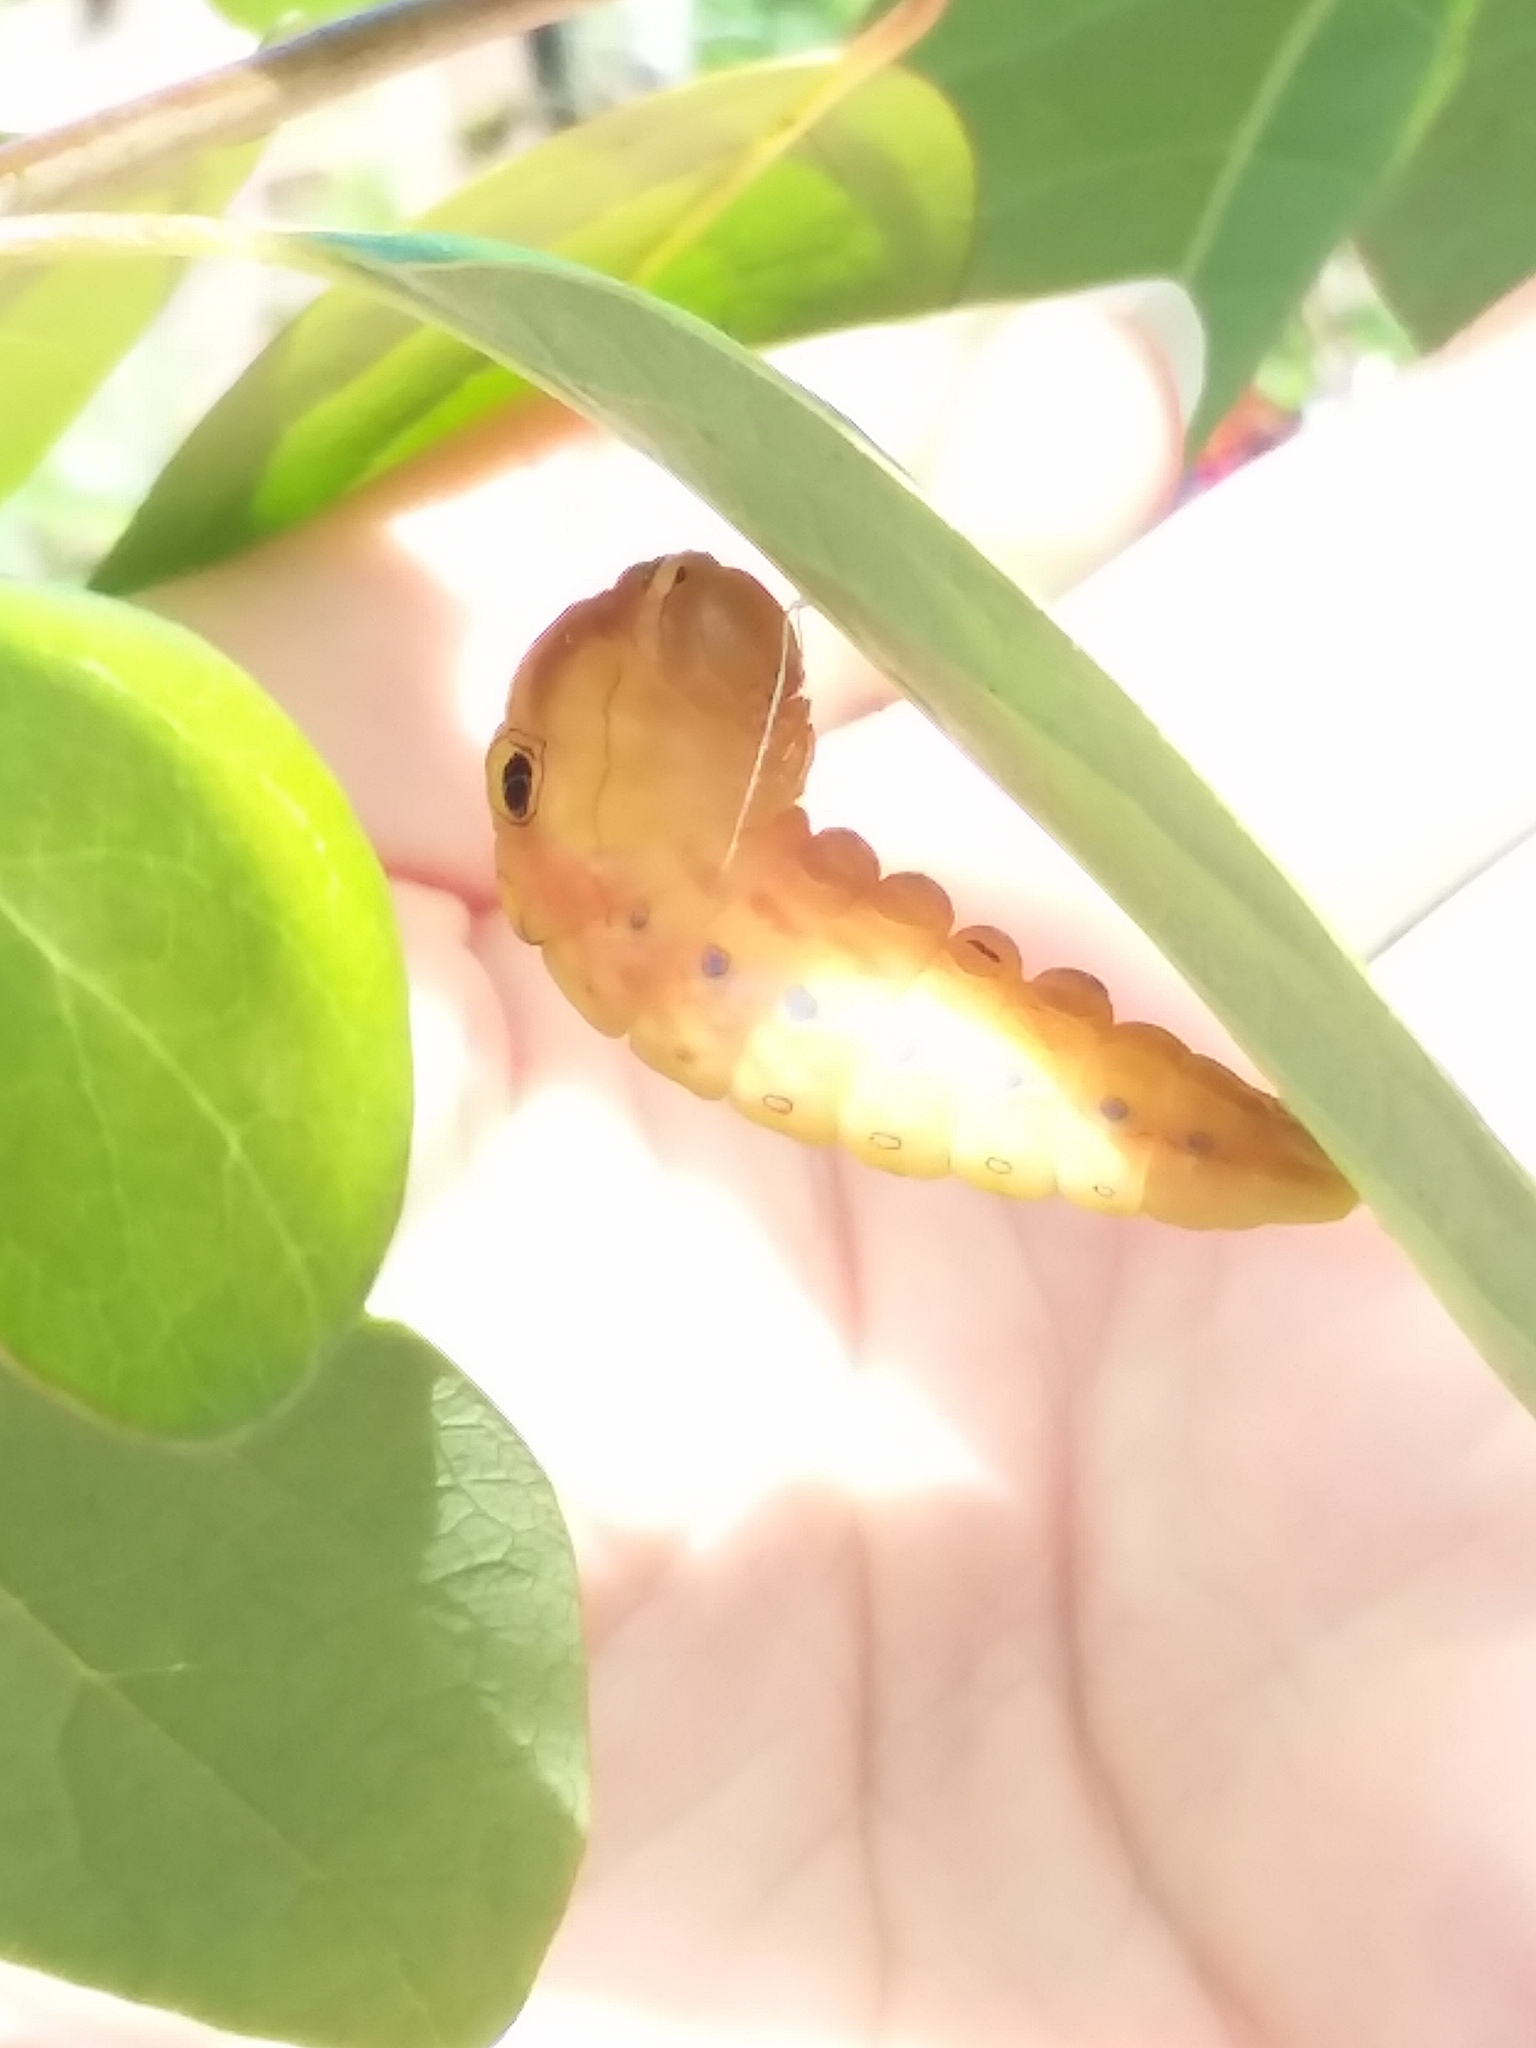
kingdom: Animalia
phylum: Arthropoda
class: Insecta
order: Lepidoptera
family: Papilionidae
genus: Papilio
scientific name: Papilio troilus
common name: Spicebush swallowtail
